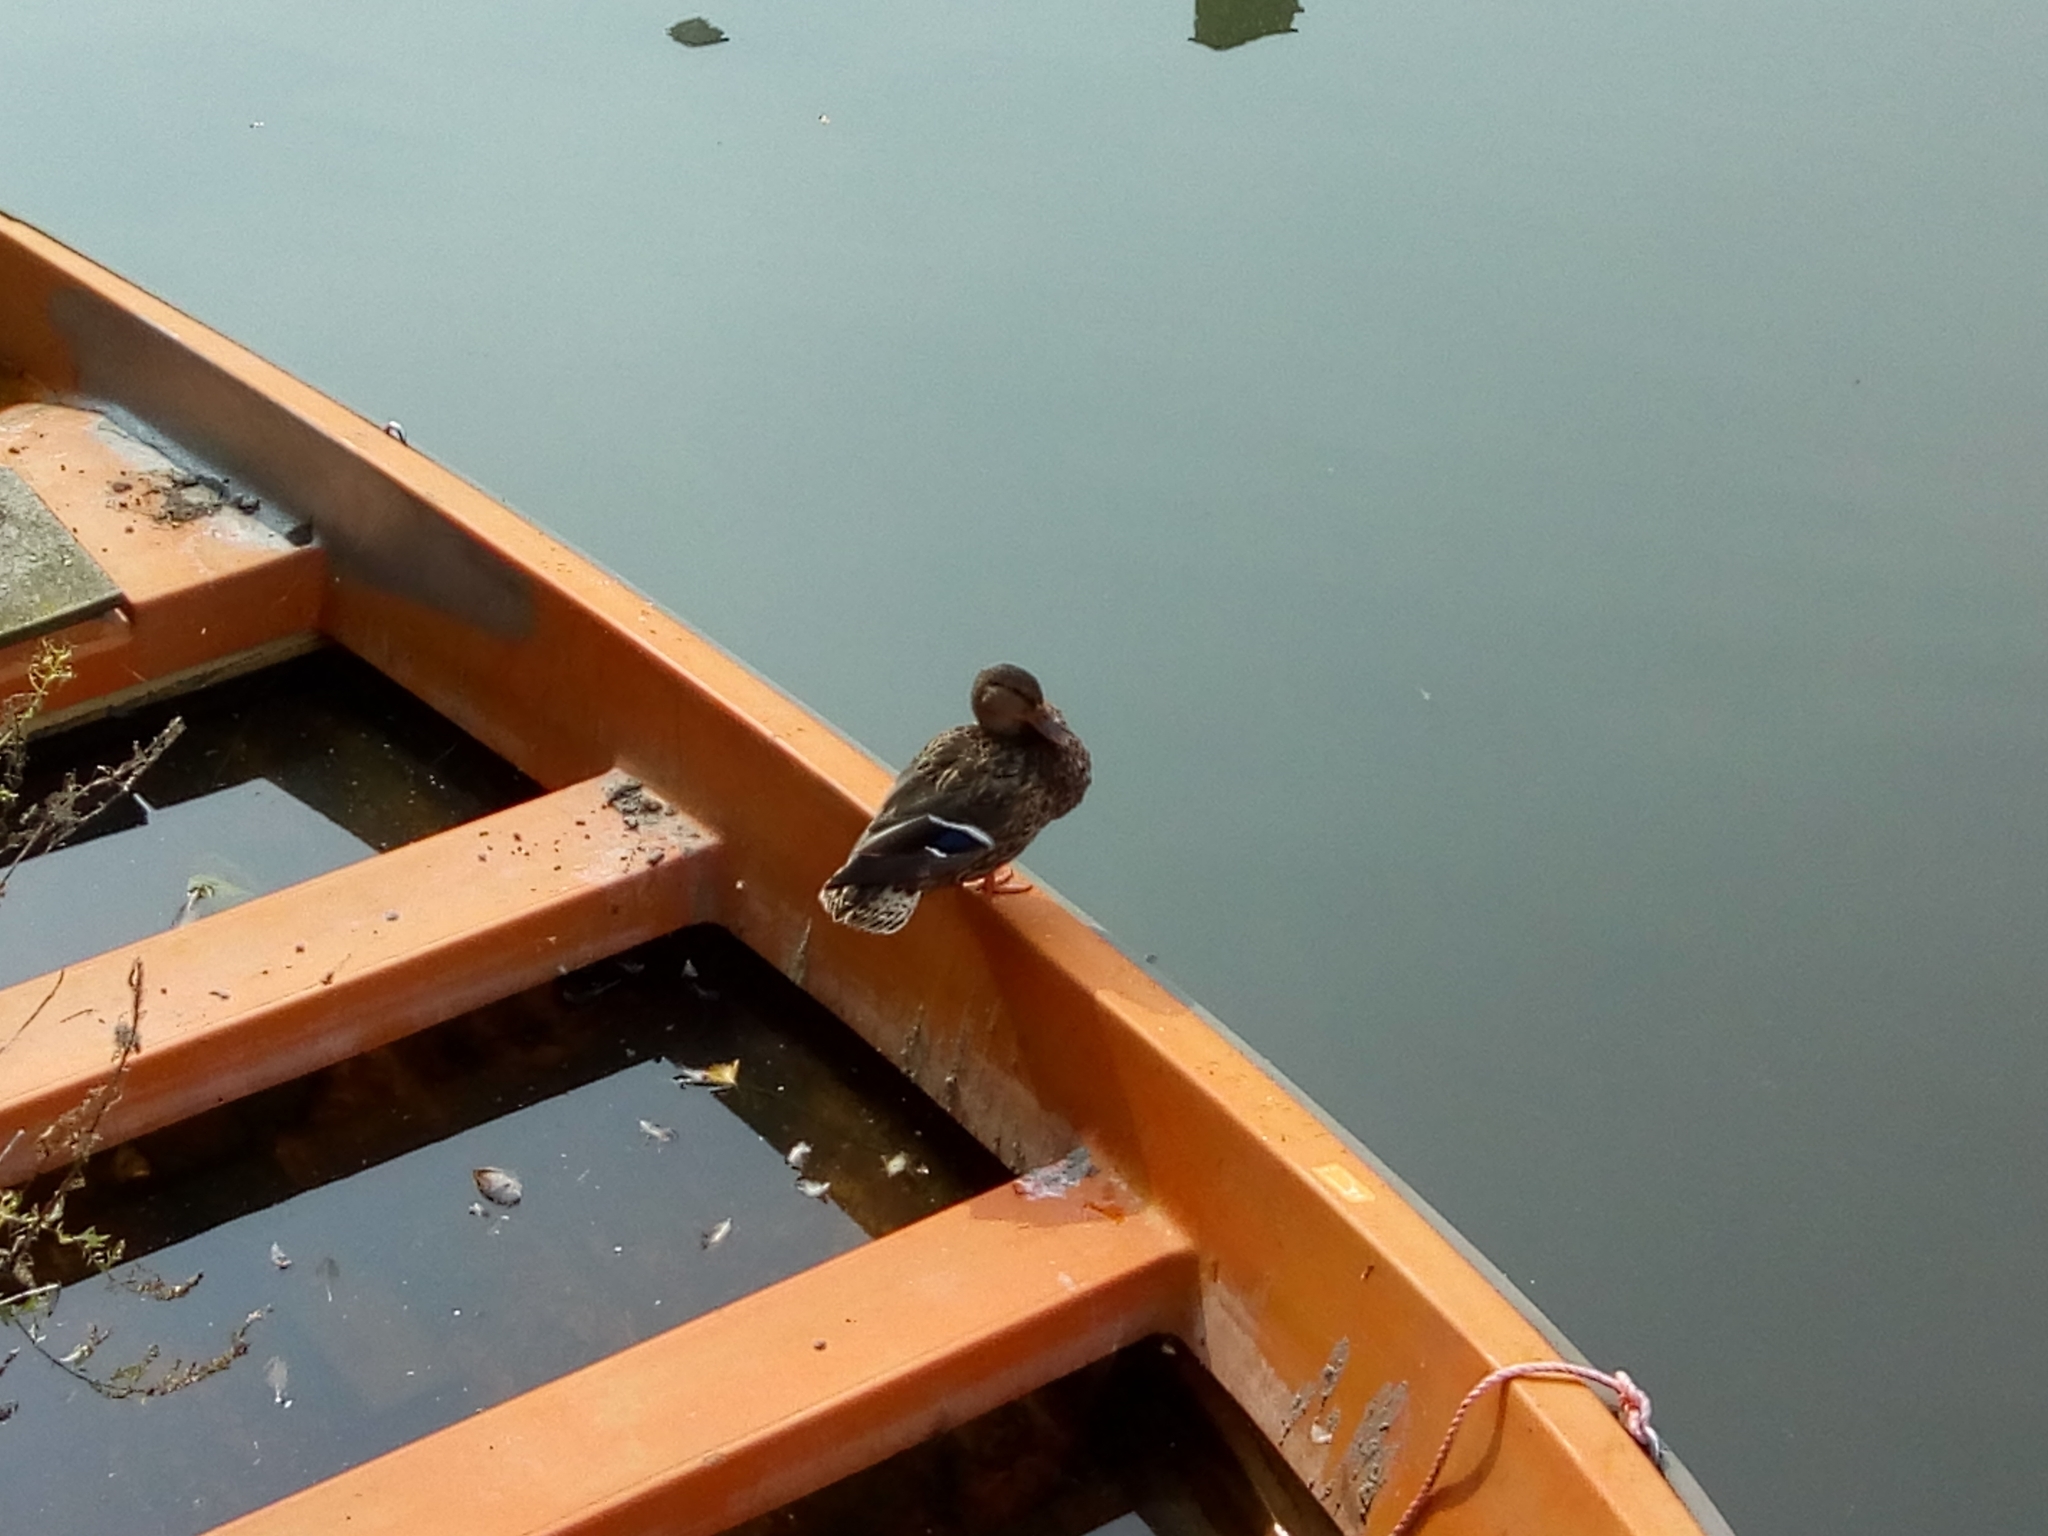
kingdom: Animalia
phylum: Chordata
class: Aves
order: Anseriformes
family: Anatidae
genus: Anas
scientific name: Anas platyrhynchos
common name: Mallard
